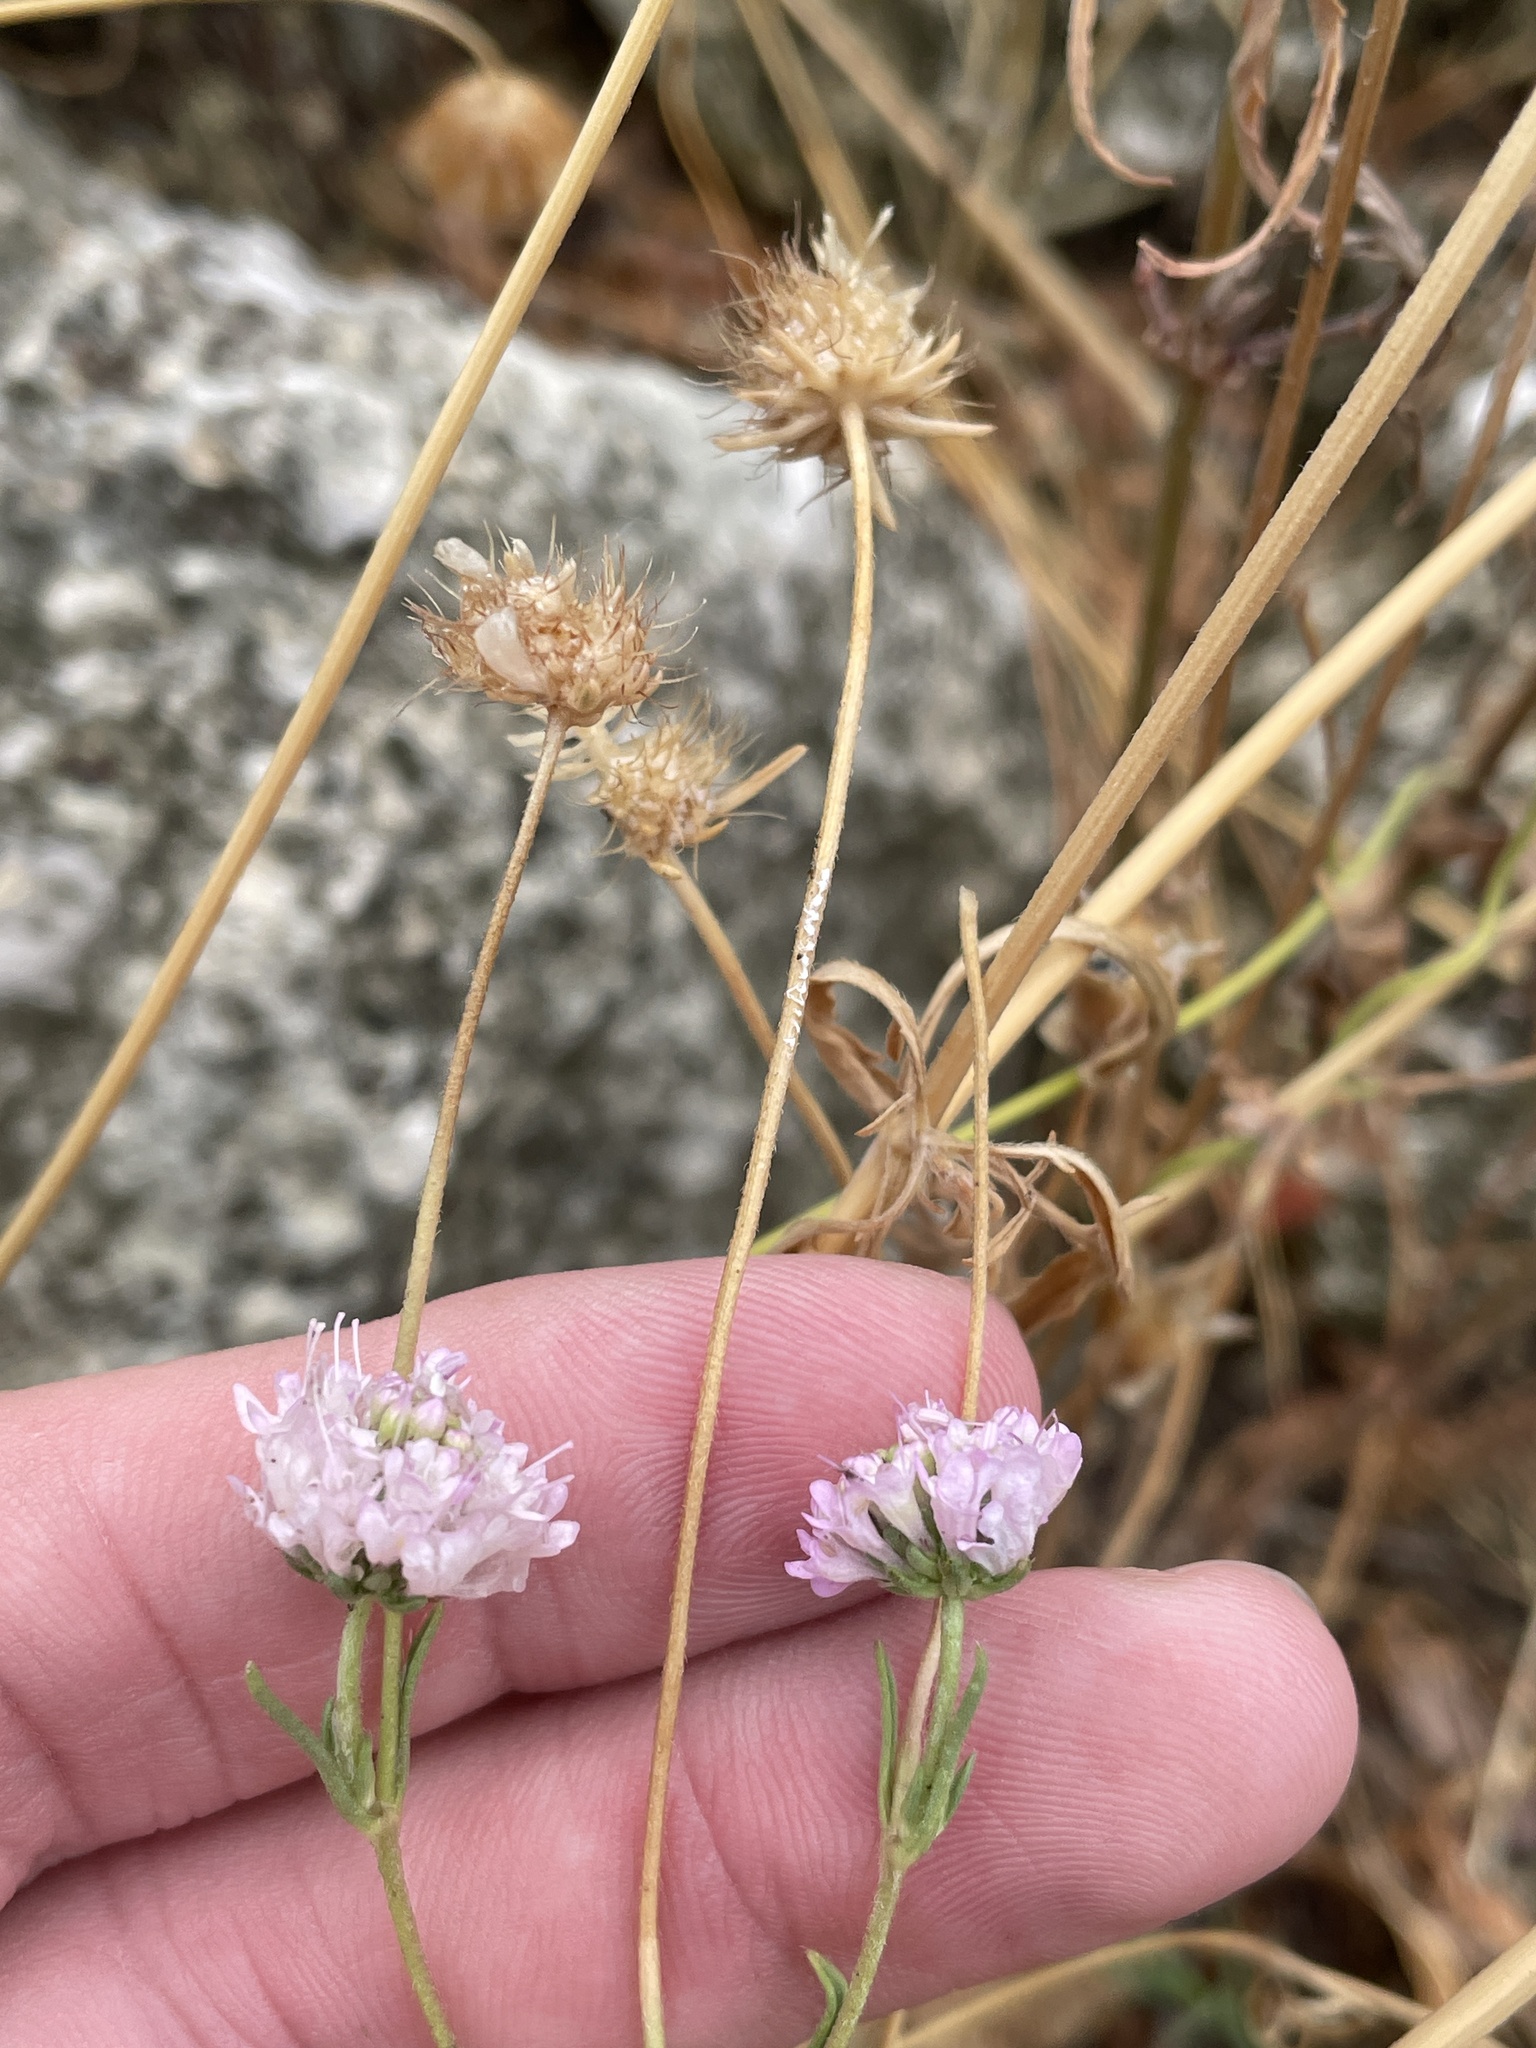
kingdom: Plantae
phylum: Tracheophyta
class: Magnoliopsida
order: Dipsacales
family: Caprifoliaceae
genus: Sixalix
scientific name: Sixalix atropurpurea
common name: Sweet scabious
